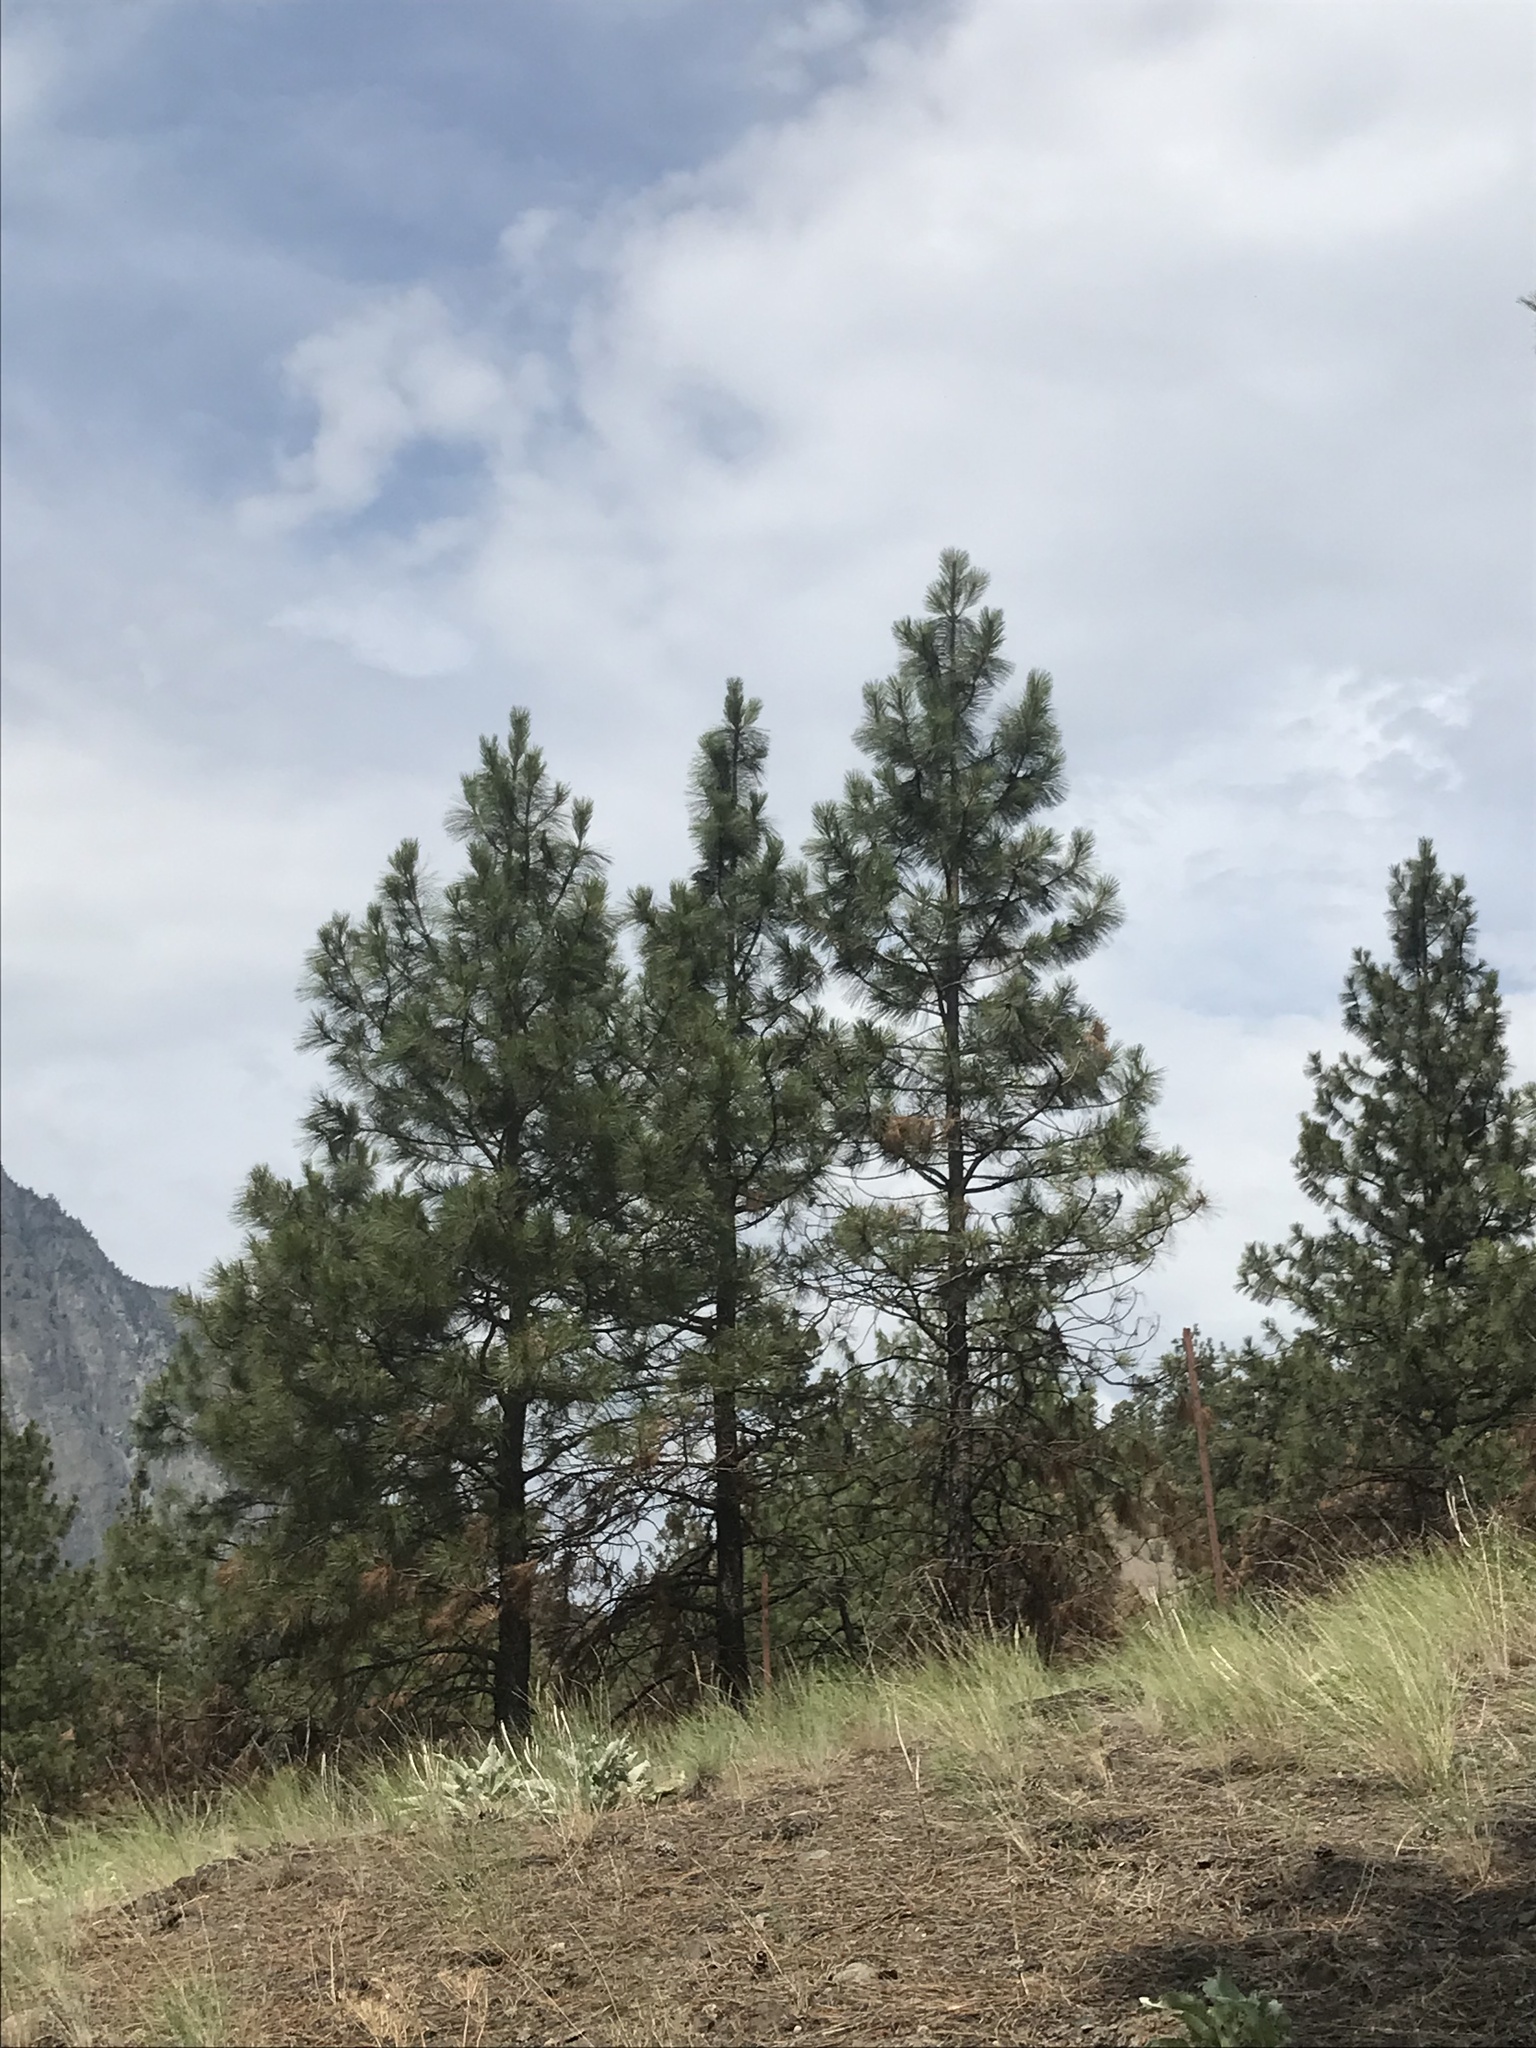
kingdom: Plantae
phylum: Tracheophyta
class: Pinopsida
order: Pinales
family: Pinaceae
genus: Pinus
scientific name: Pinus ponderosa
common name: Western yellow-pine
